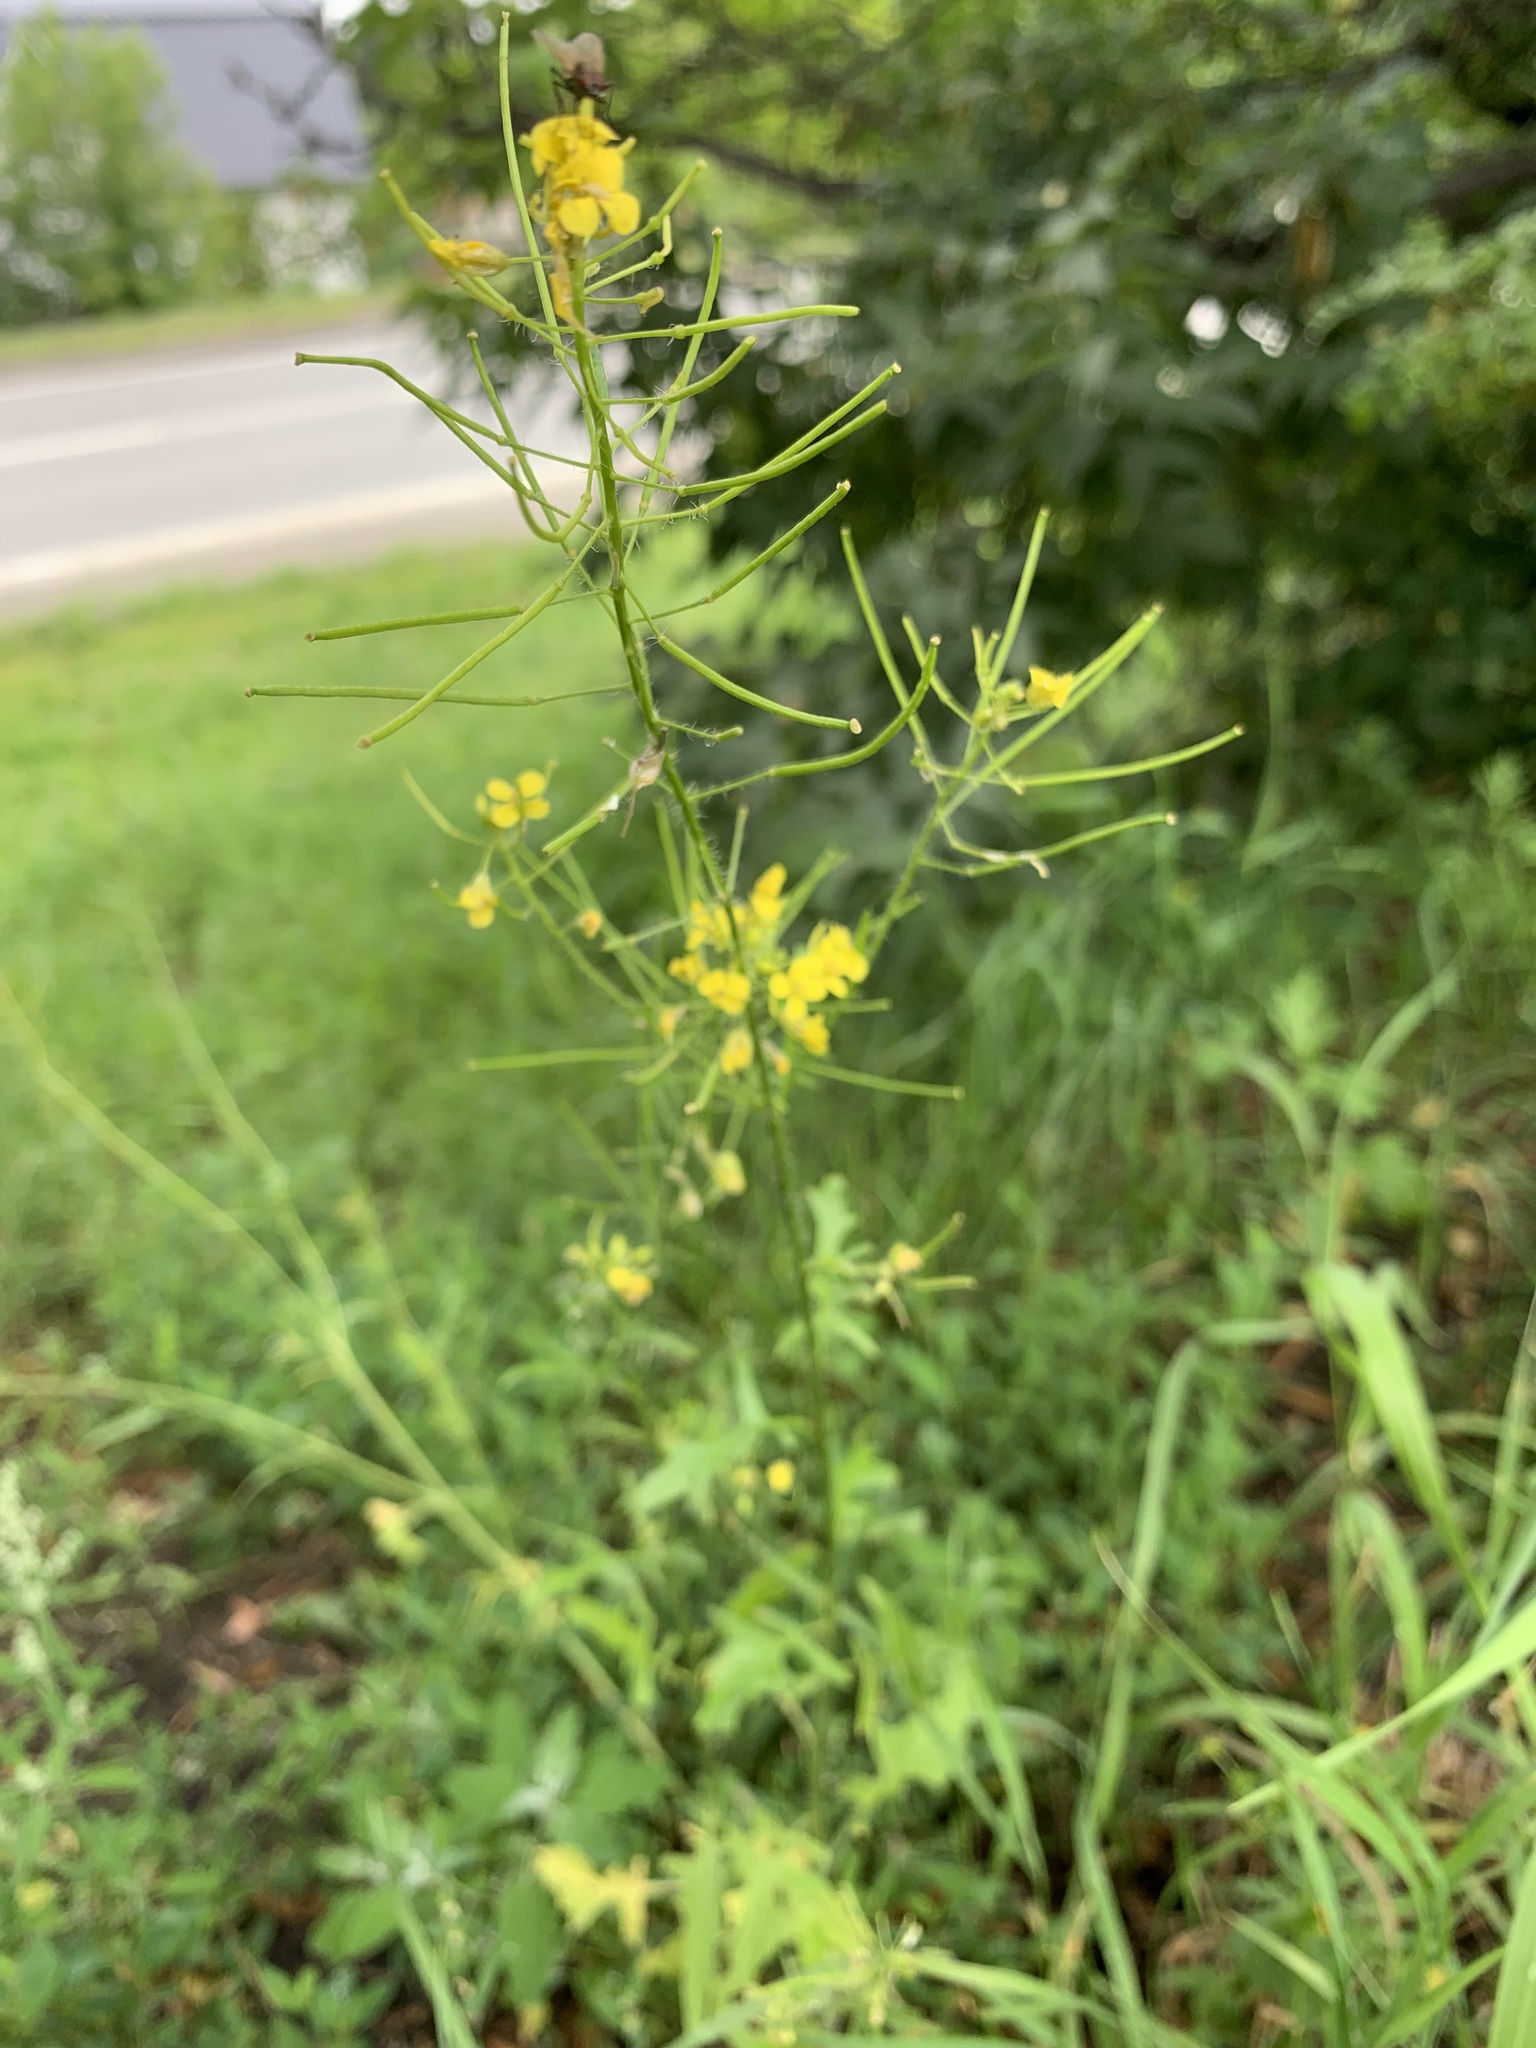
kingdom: Plantae
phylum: Tracheophyta
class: Magnoliopsida
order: Brassicales
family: Brassicaceae
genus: Sisymbrium
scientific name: Sisymbrium loeselii
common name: False london-rocket
